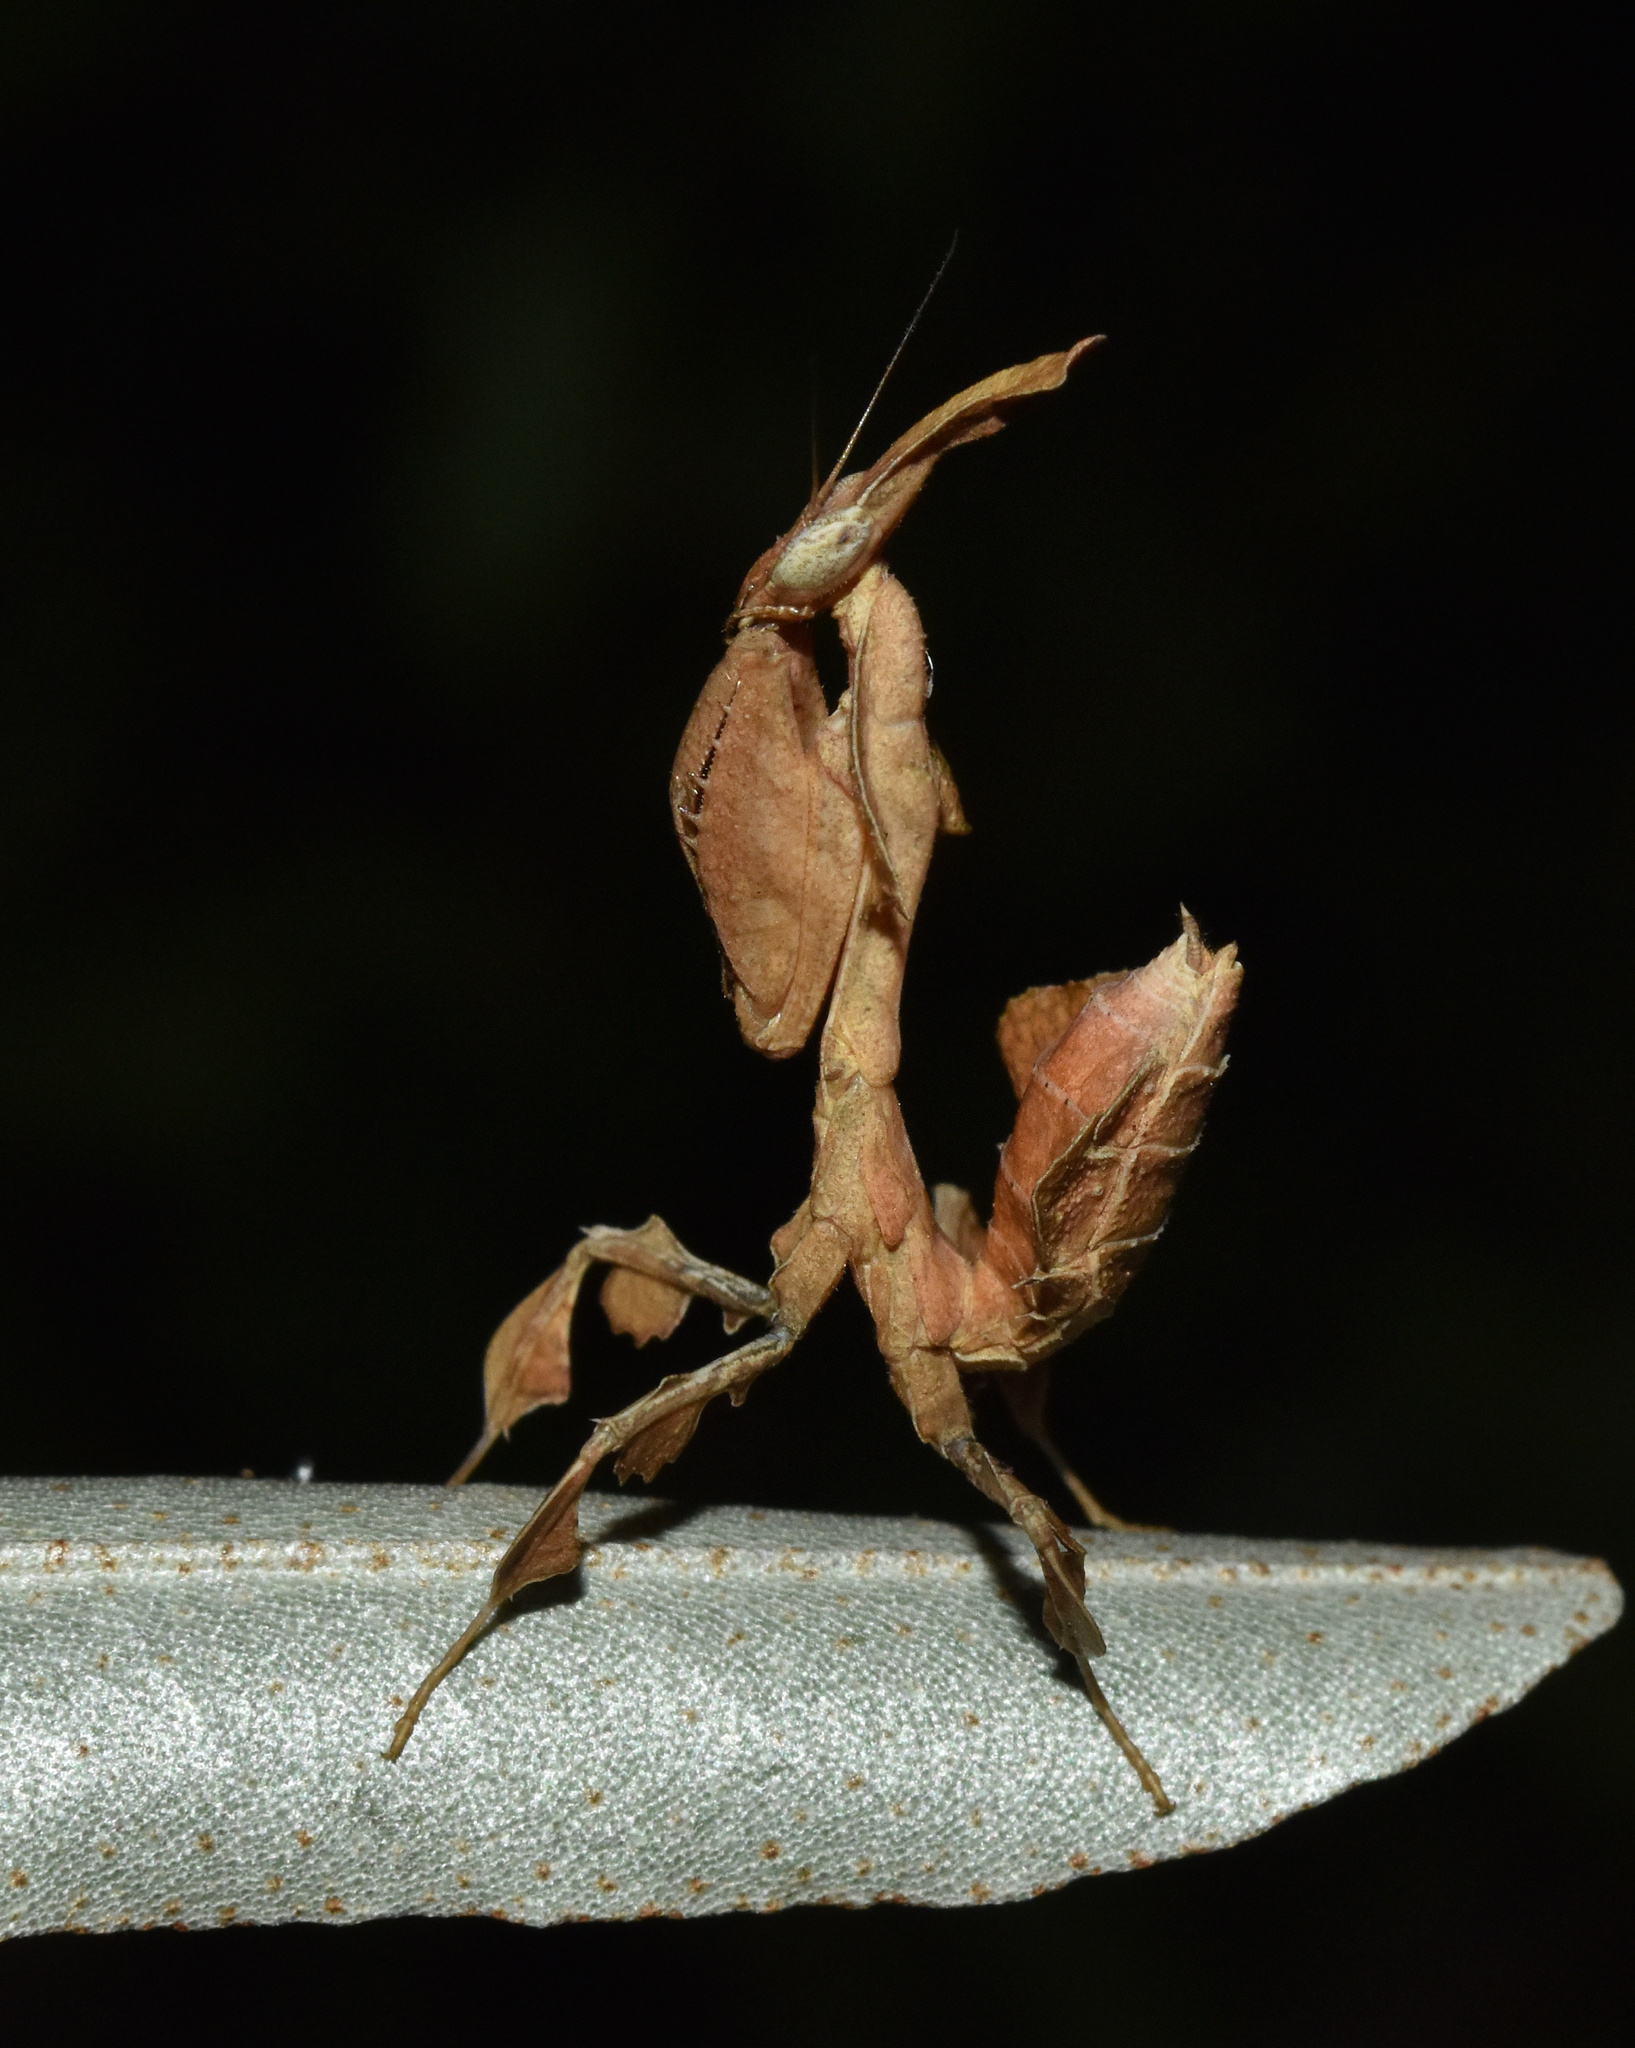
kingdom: Animalia
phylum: Arthropoda
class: Insecta
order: Mantodea
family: Hymenopodidae
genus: Phyllocrania
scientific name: Phyllocrania paradoxa
